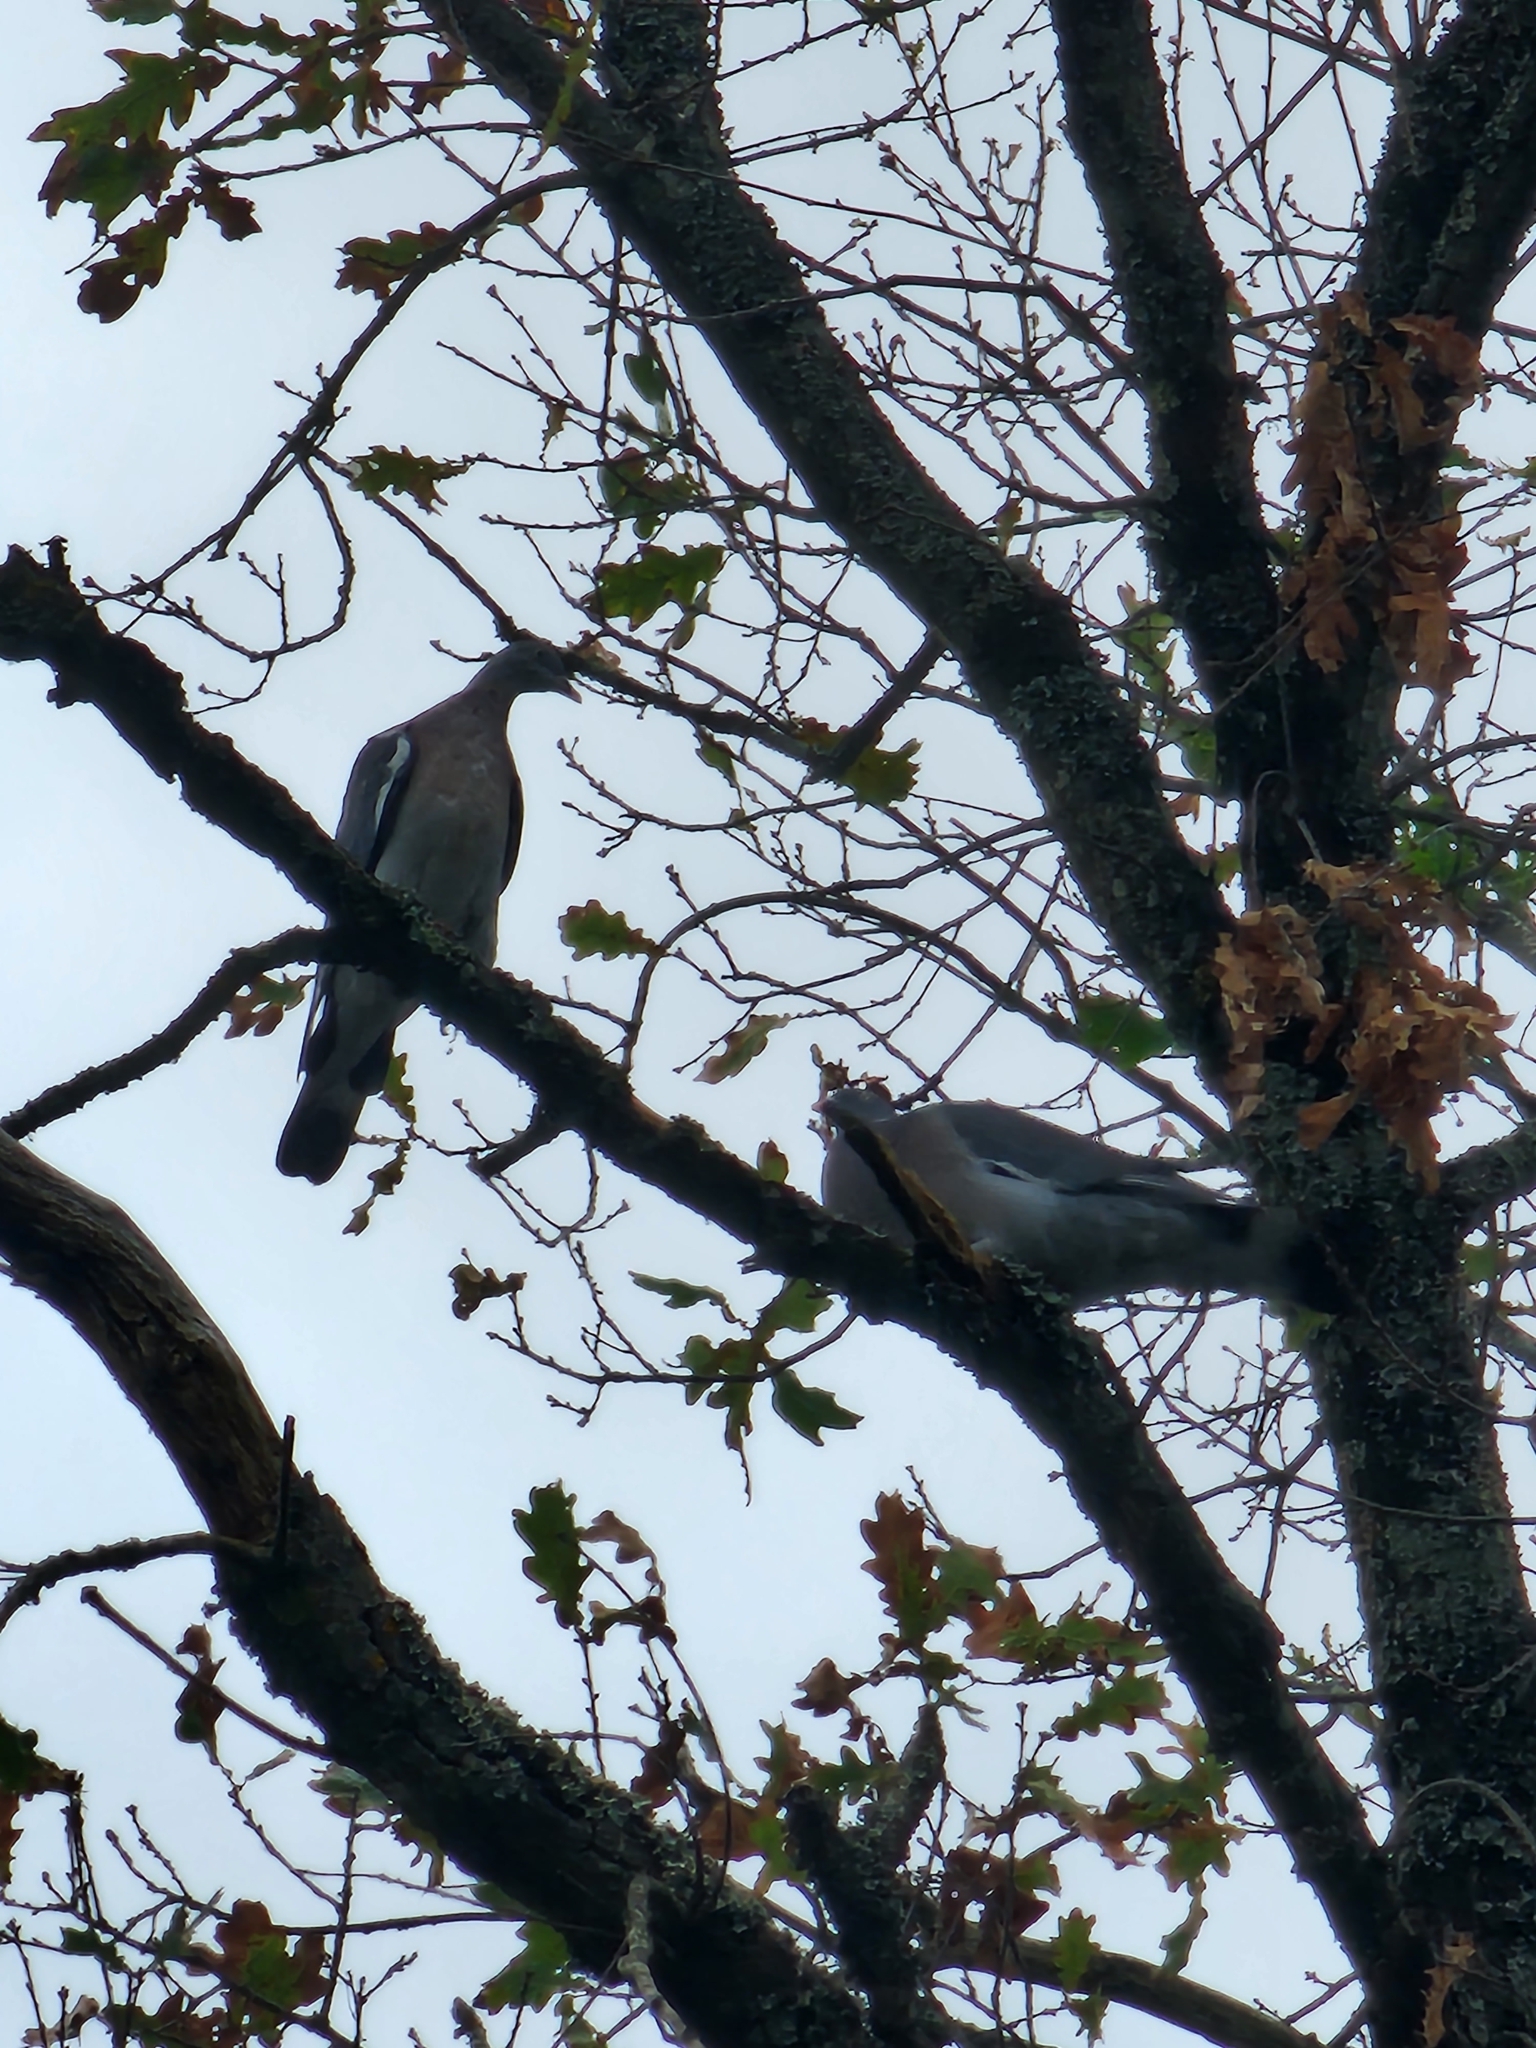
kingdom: Animalia
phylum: Chordata
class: Aves
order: Columbiformes
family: Columbidae
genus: Columba
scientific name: Columba palumbus
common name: Common wood pigeon
